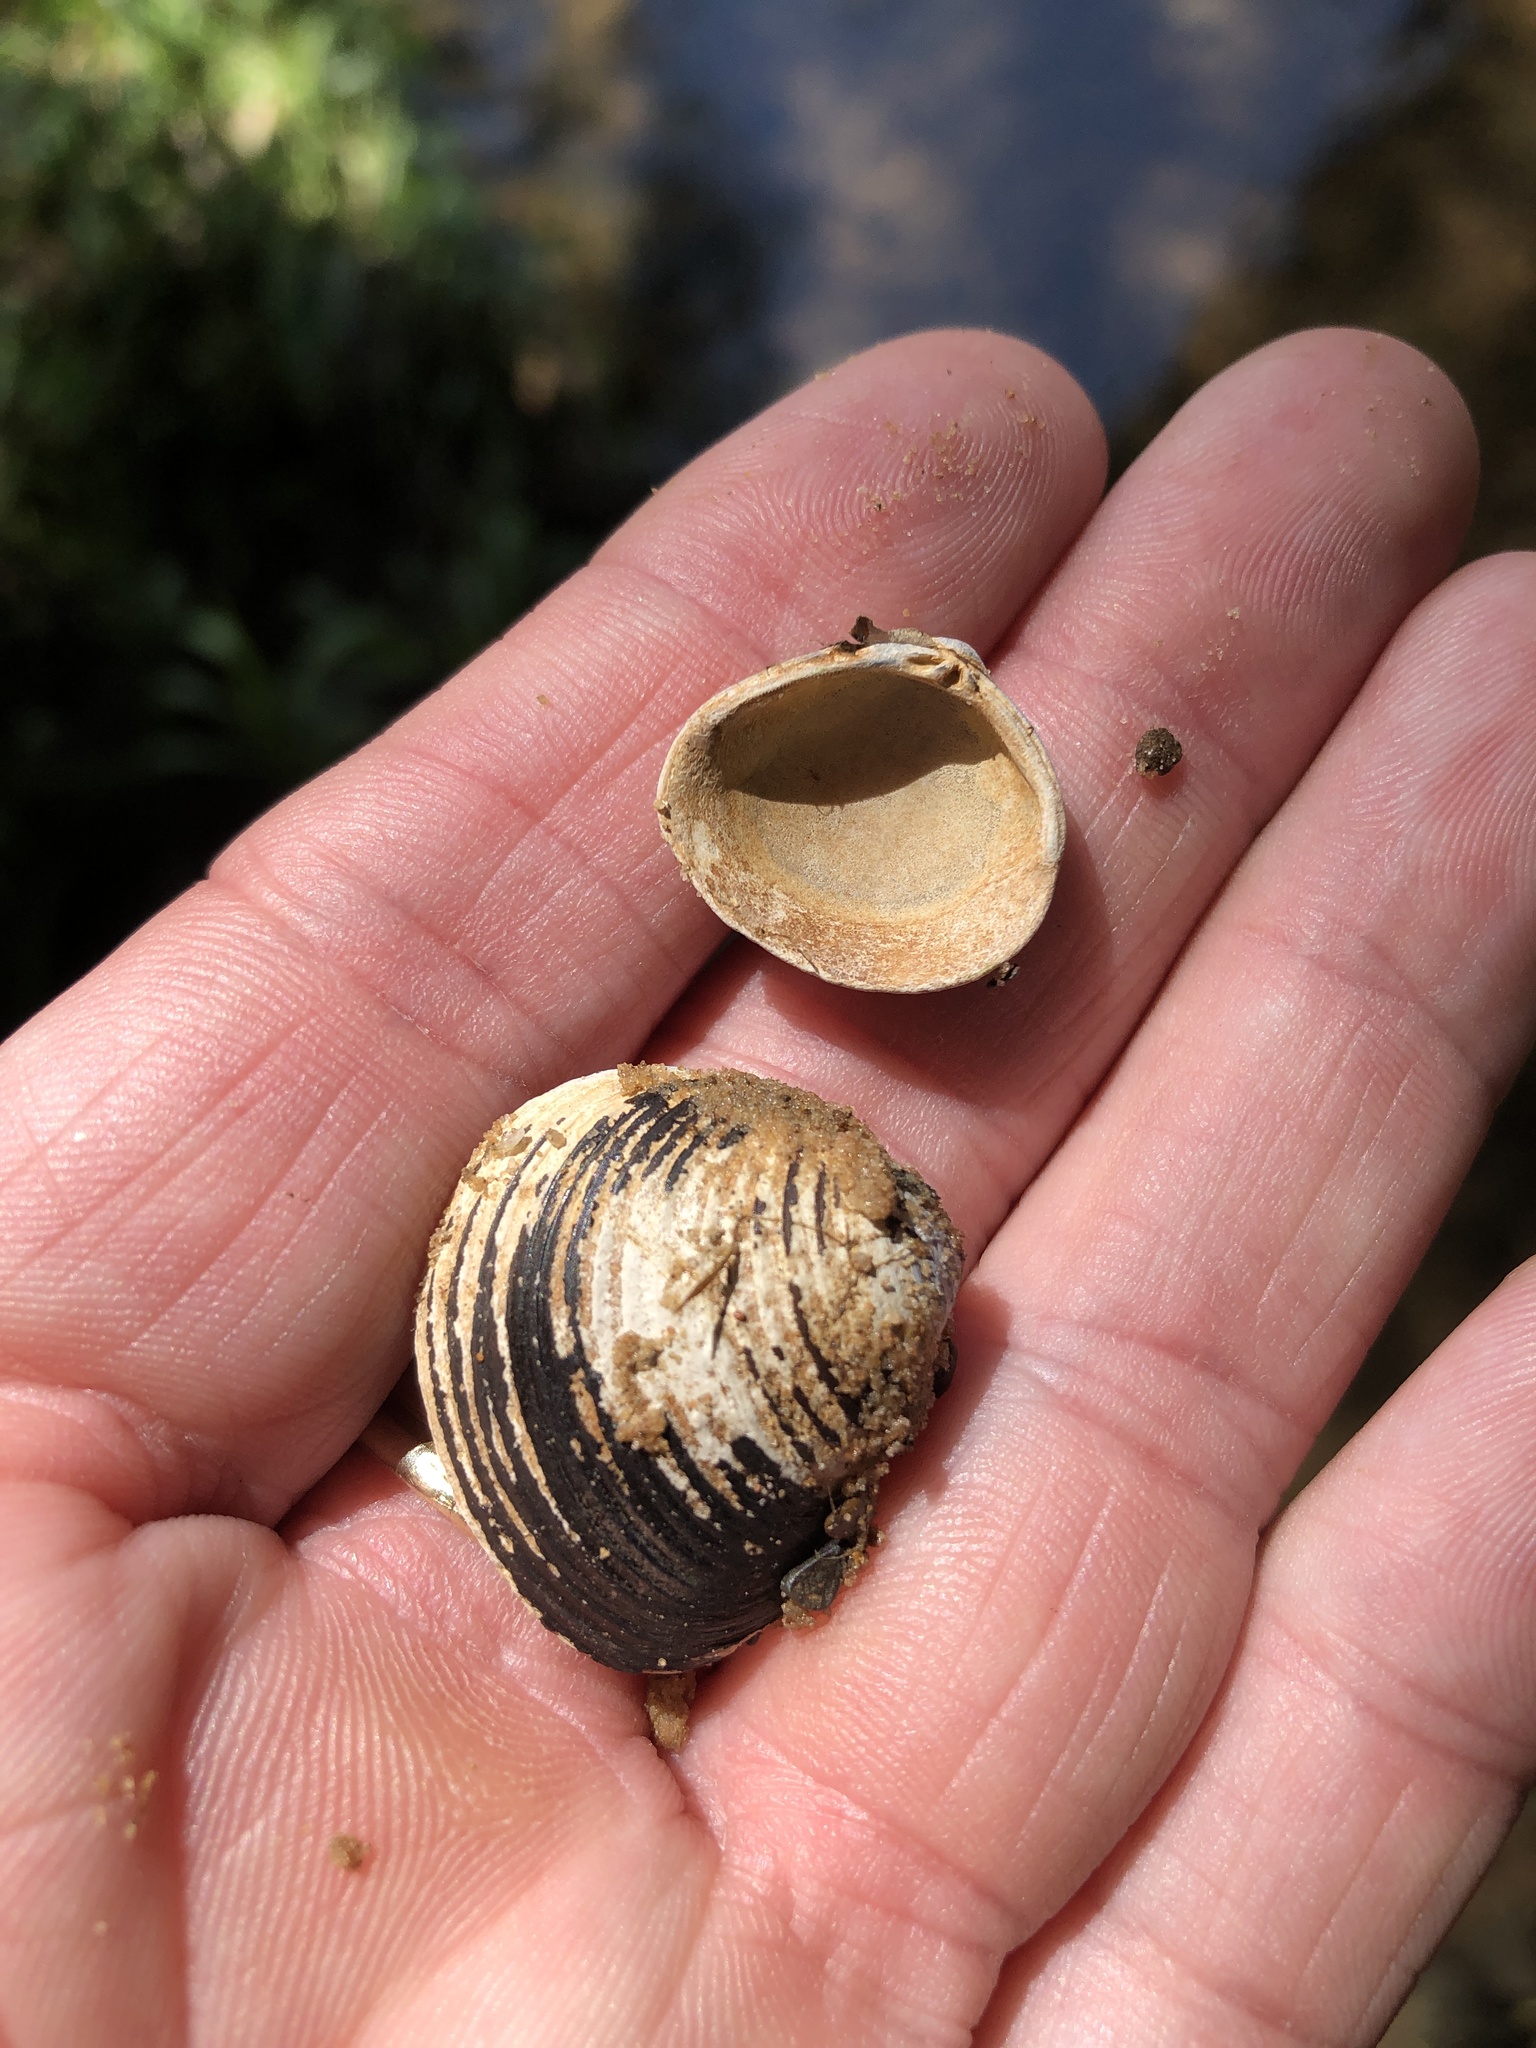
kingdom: Animalia
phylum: Mollusca
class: Bivalvia
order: Venerida
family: Cyrenidae
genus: Corbicula
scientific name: Corbicula fluminea
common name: Asian clam
